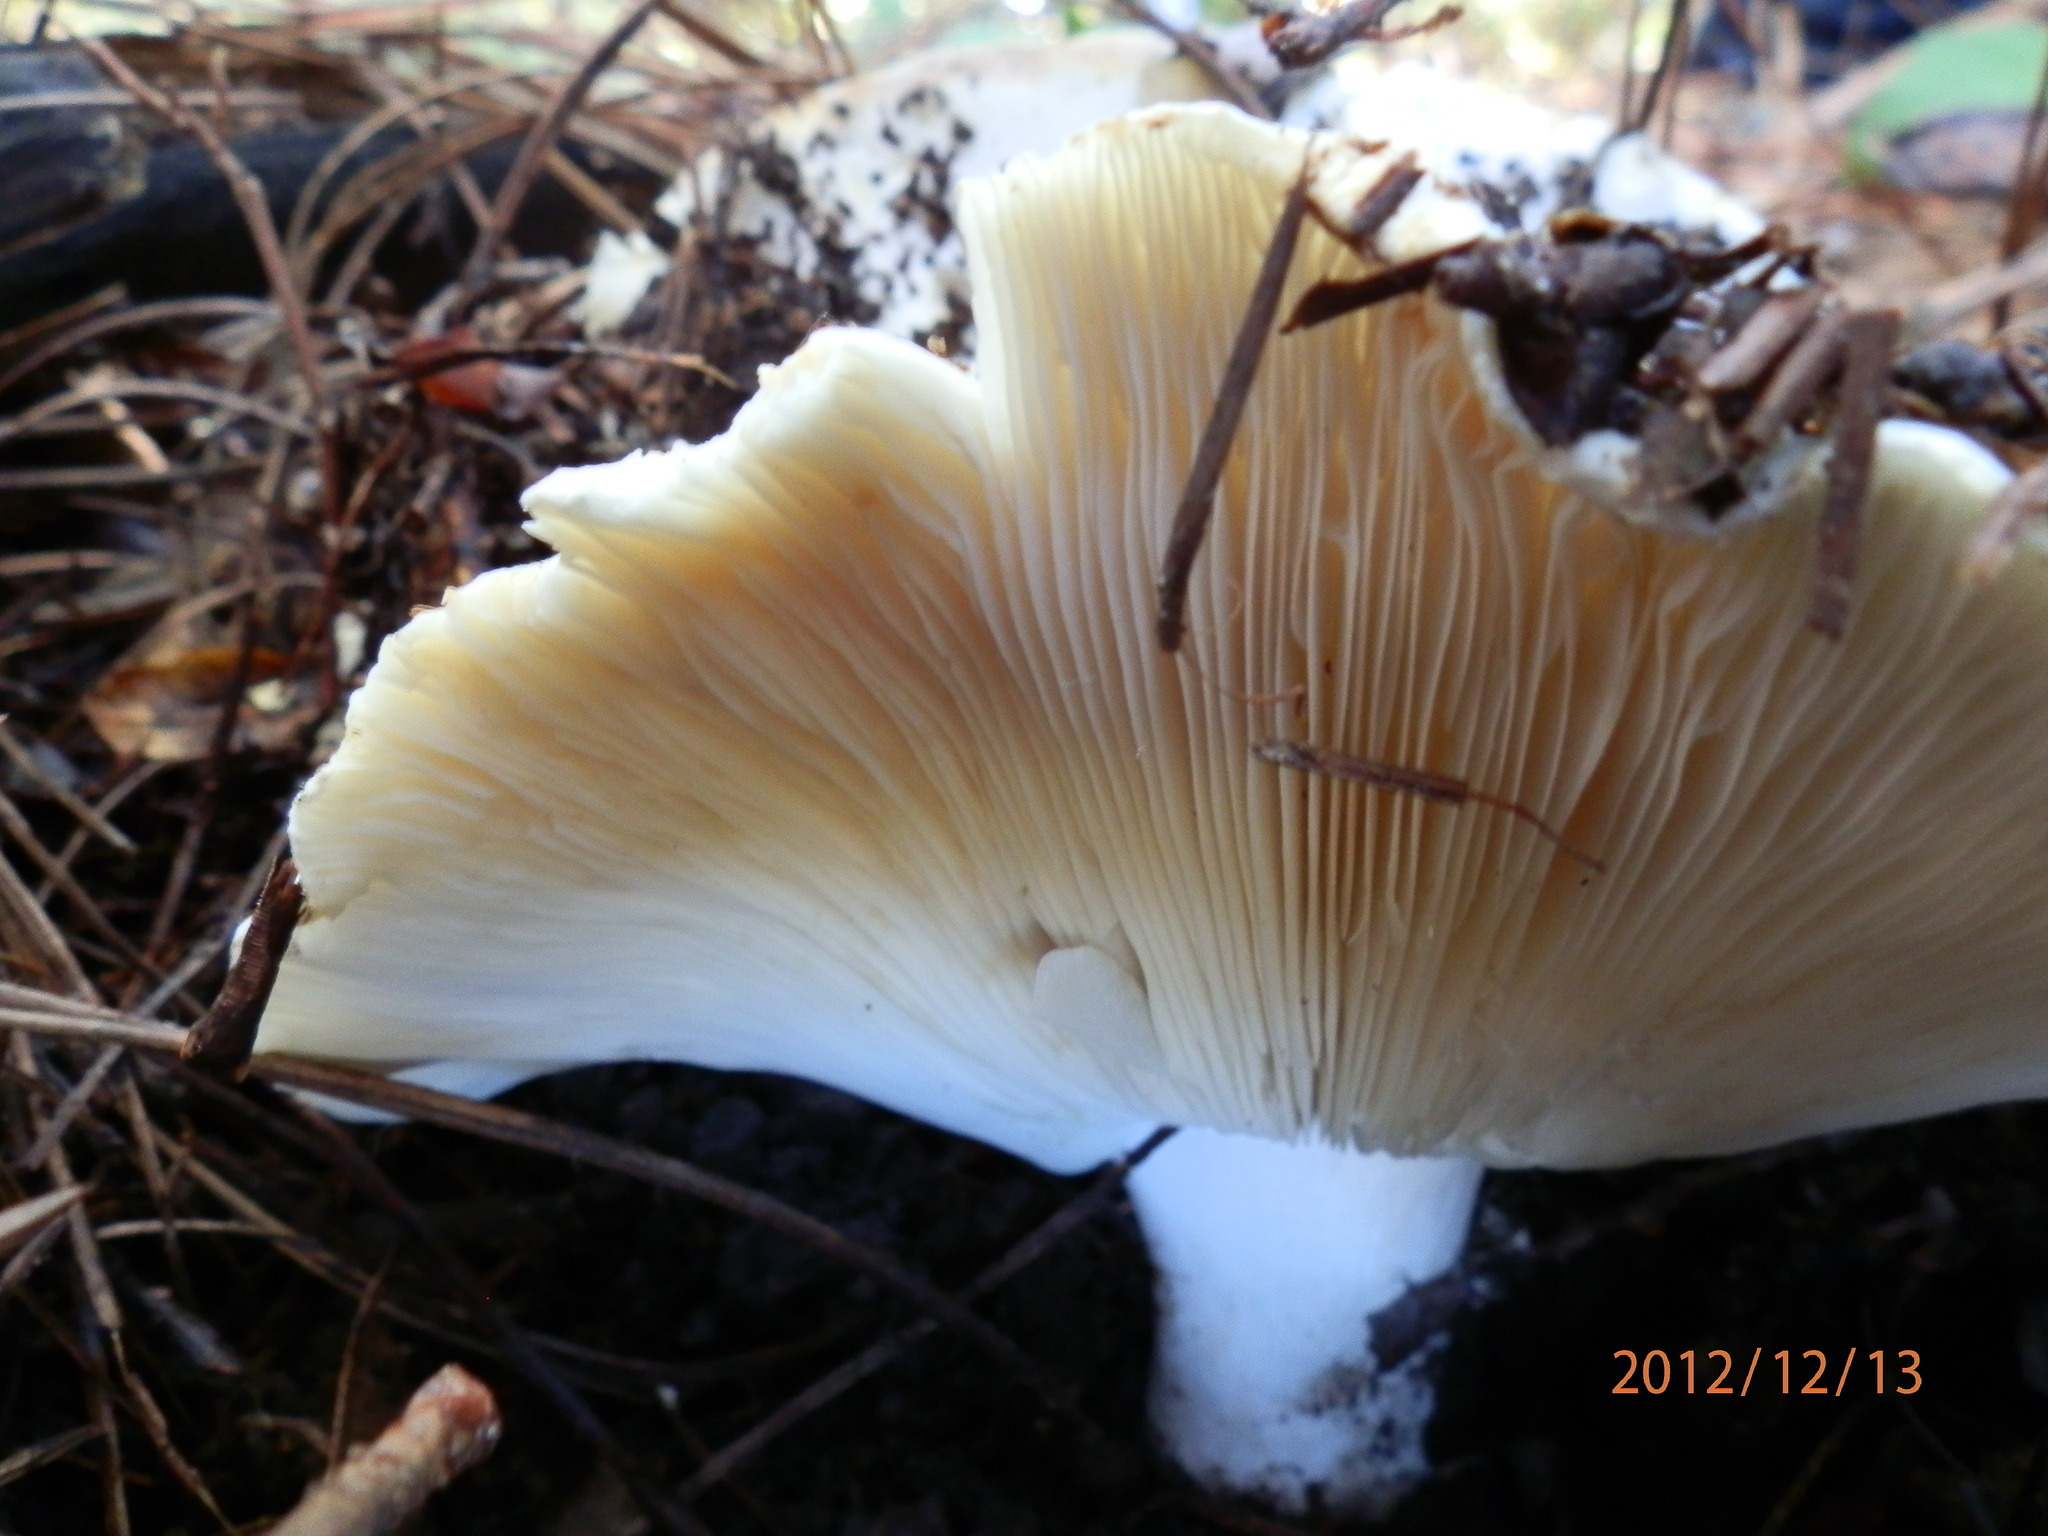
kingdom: Fungi
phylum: Basidiomycota
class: Agaricomycetes
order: Russulales
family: Russulaceae
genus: Russula
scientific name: Russula brevipes
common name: Short-stemmed russula
